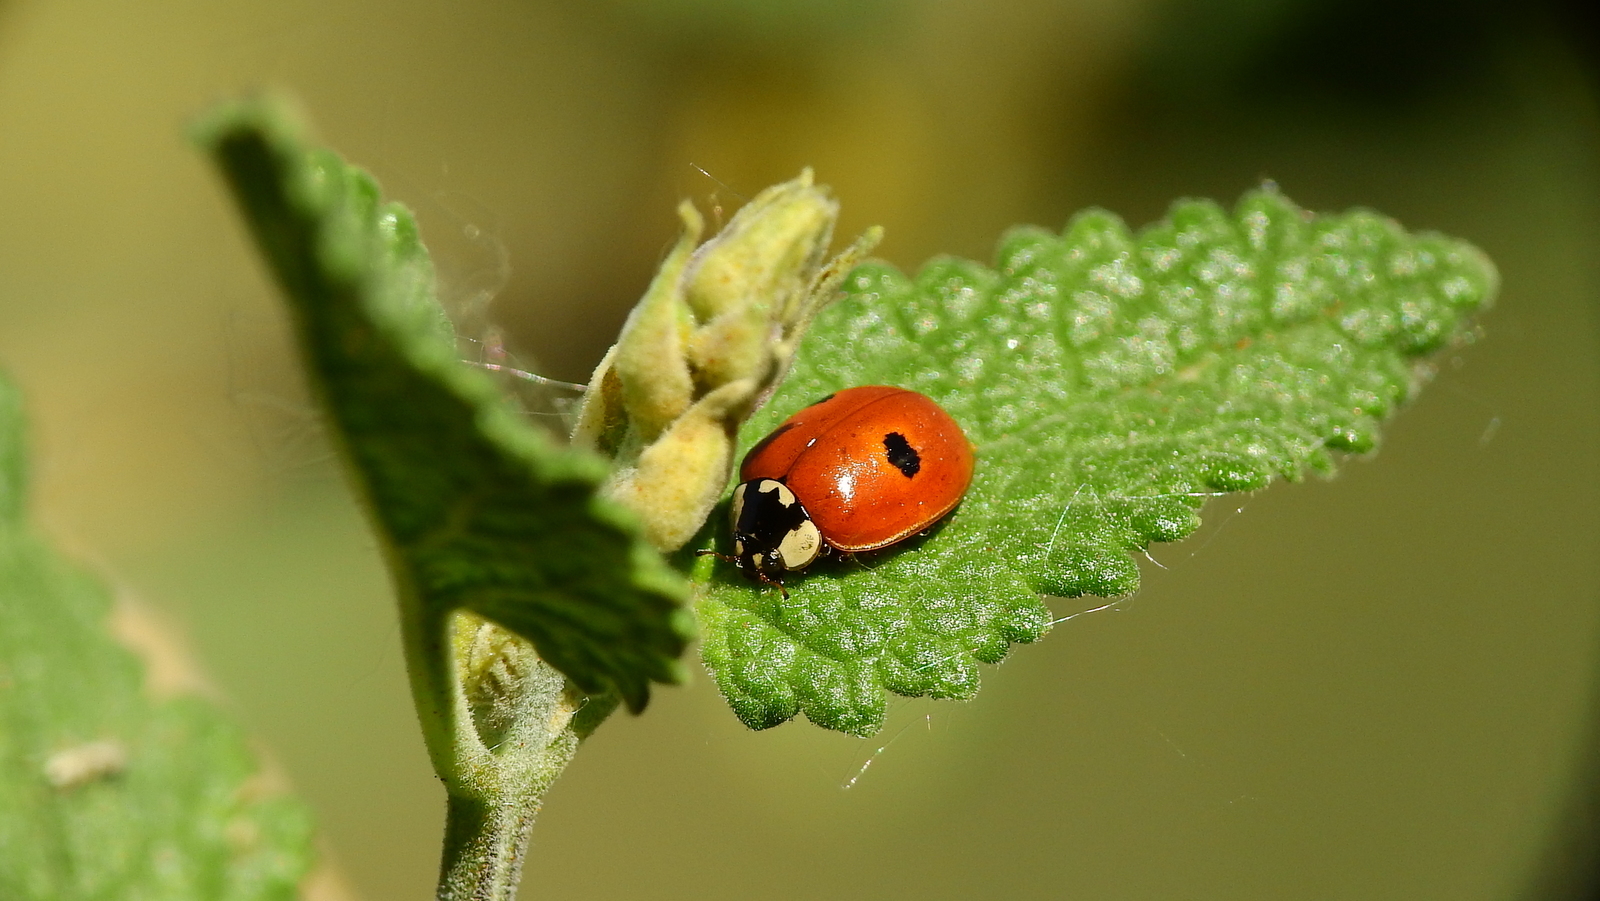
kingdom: Animalia
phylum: Arthropoda
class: Insecta
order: Coleoptera
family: Coccinellidae
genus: Adalia
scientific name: Adalia bipunctata
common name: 2-spot ladybird
